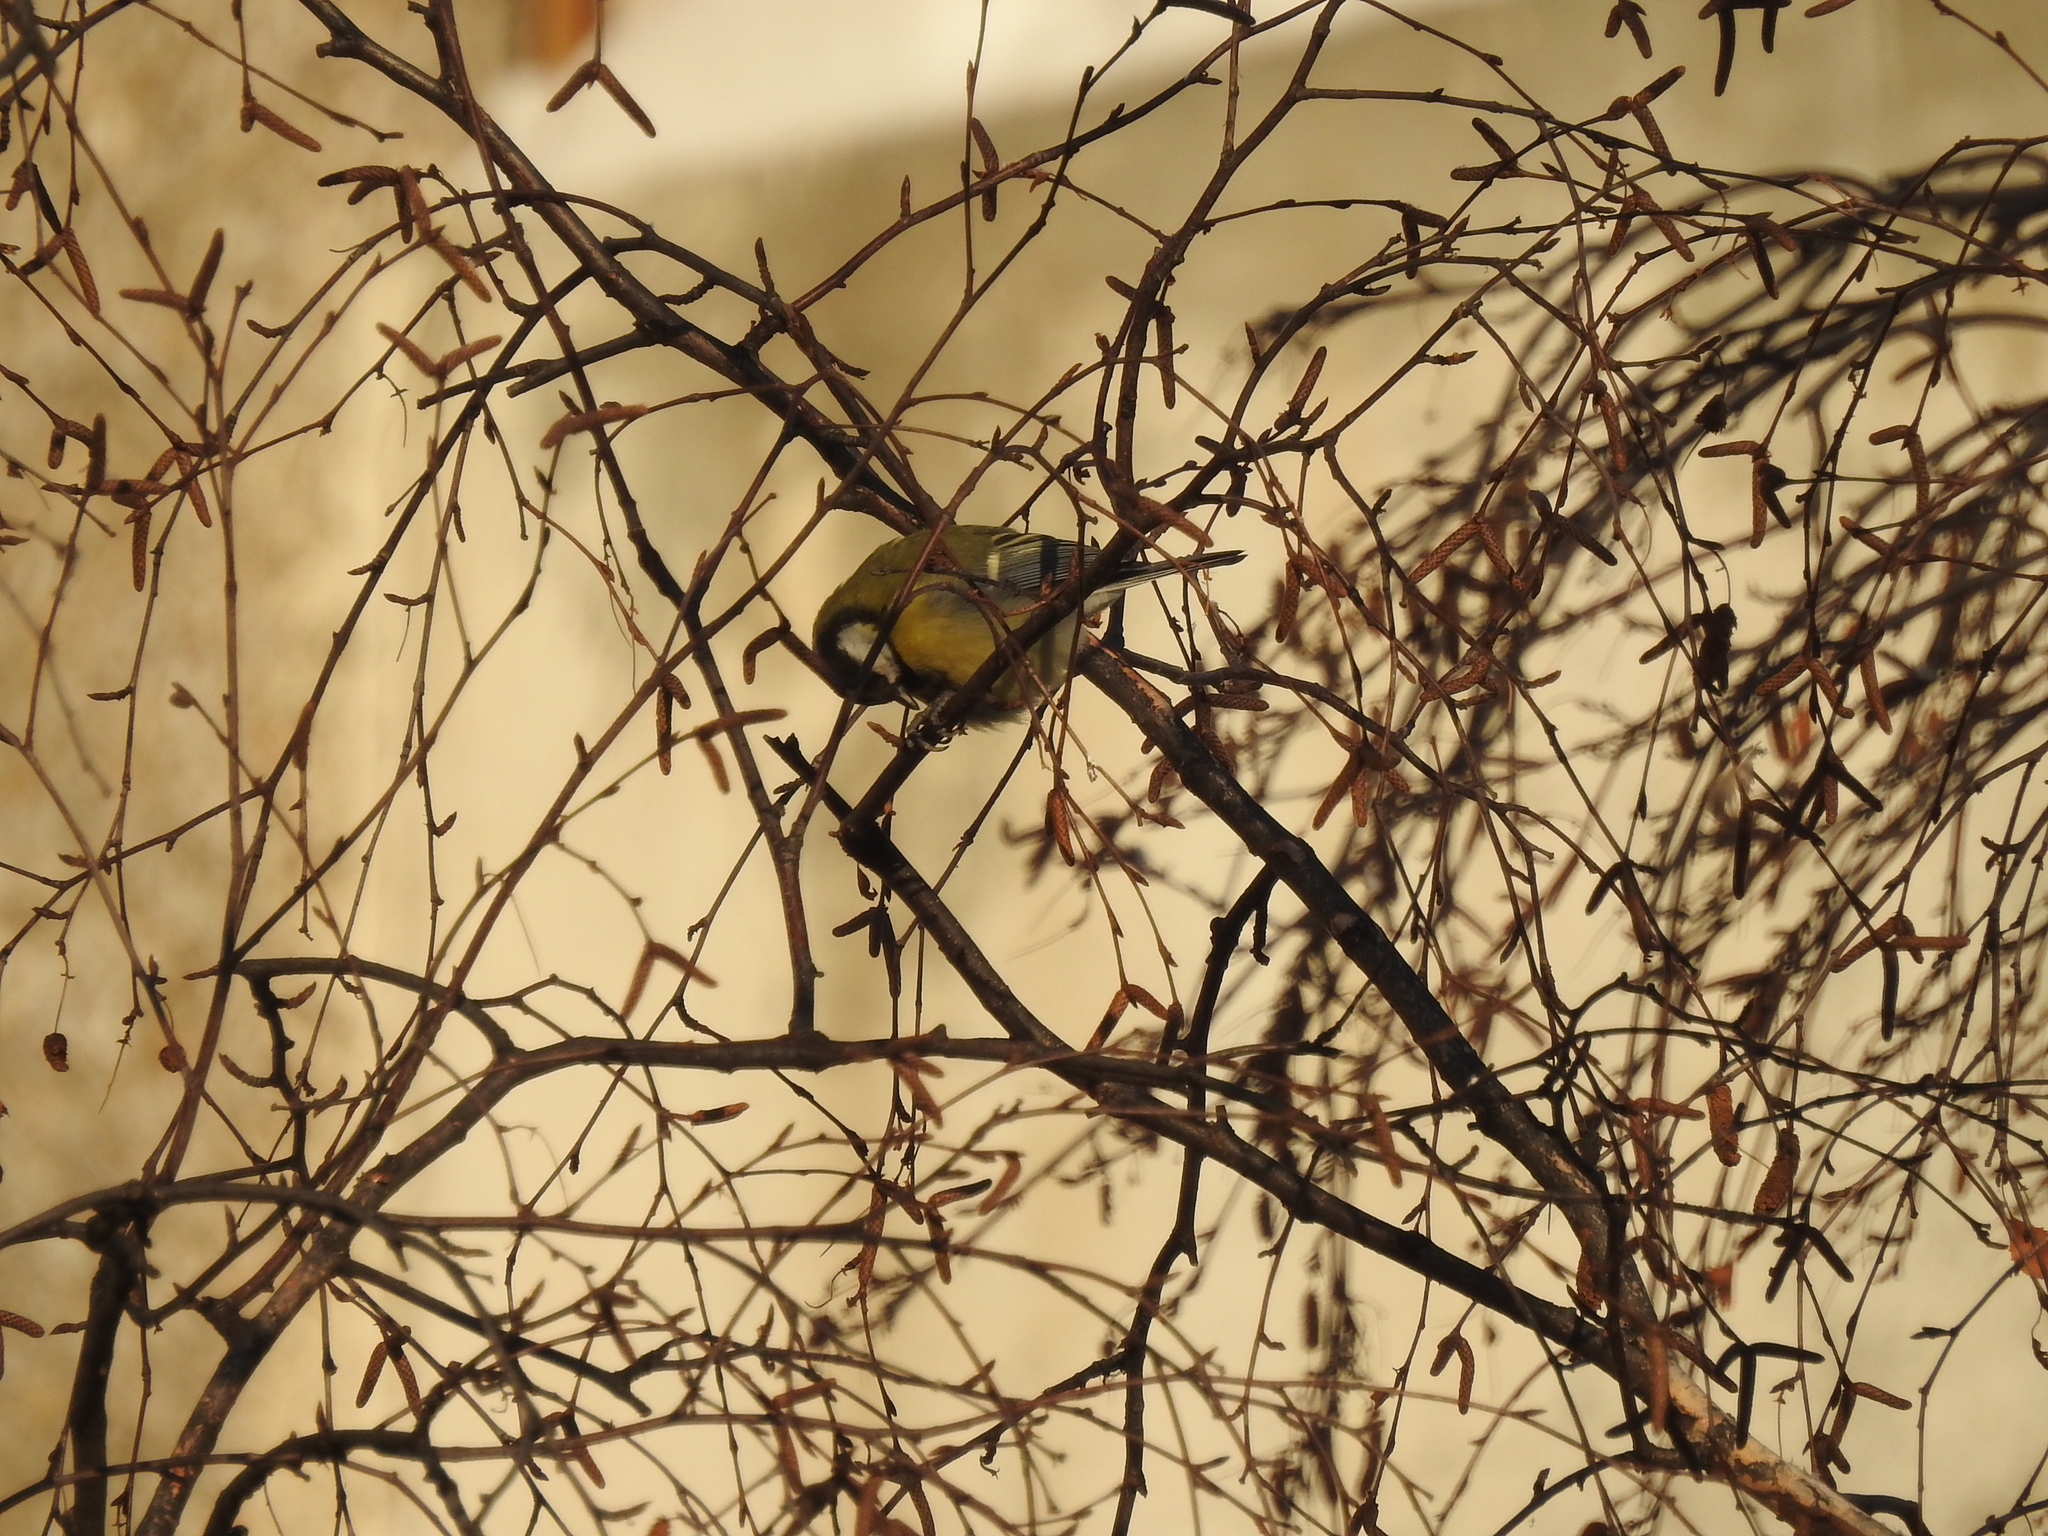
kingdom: Animalia
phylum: Chordata
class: Aves
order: Passeriformes
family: Paridae
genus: Parus
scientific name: Parus major
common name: Great tit
